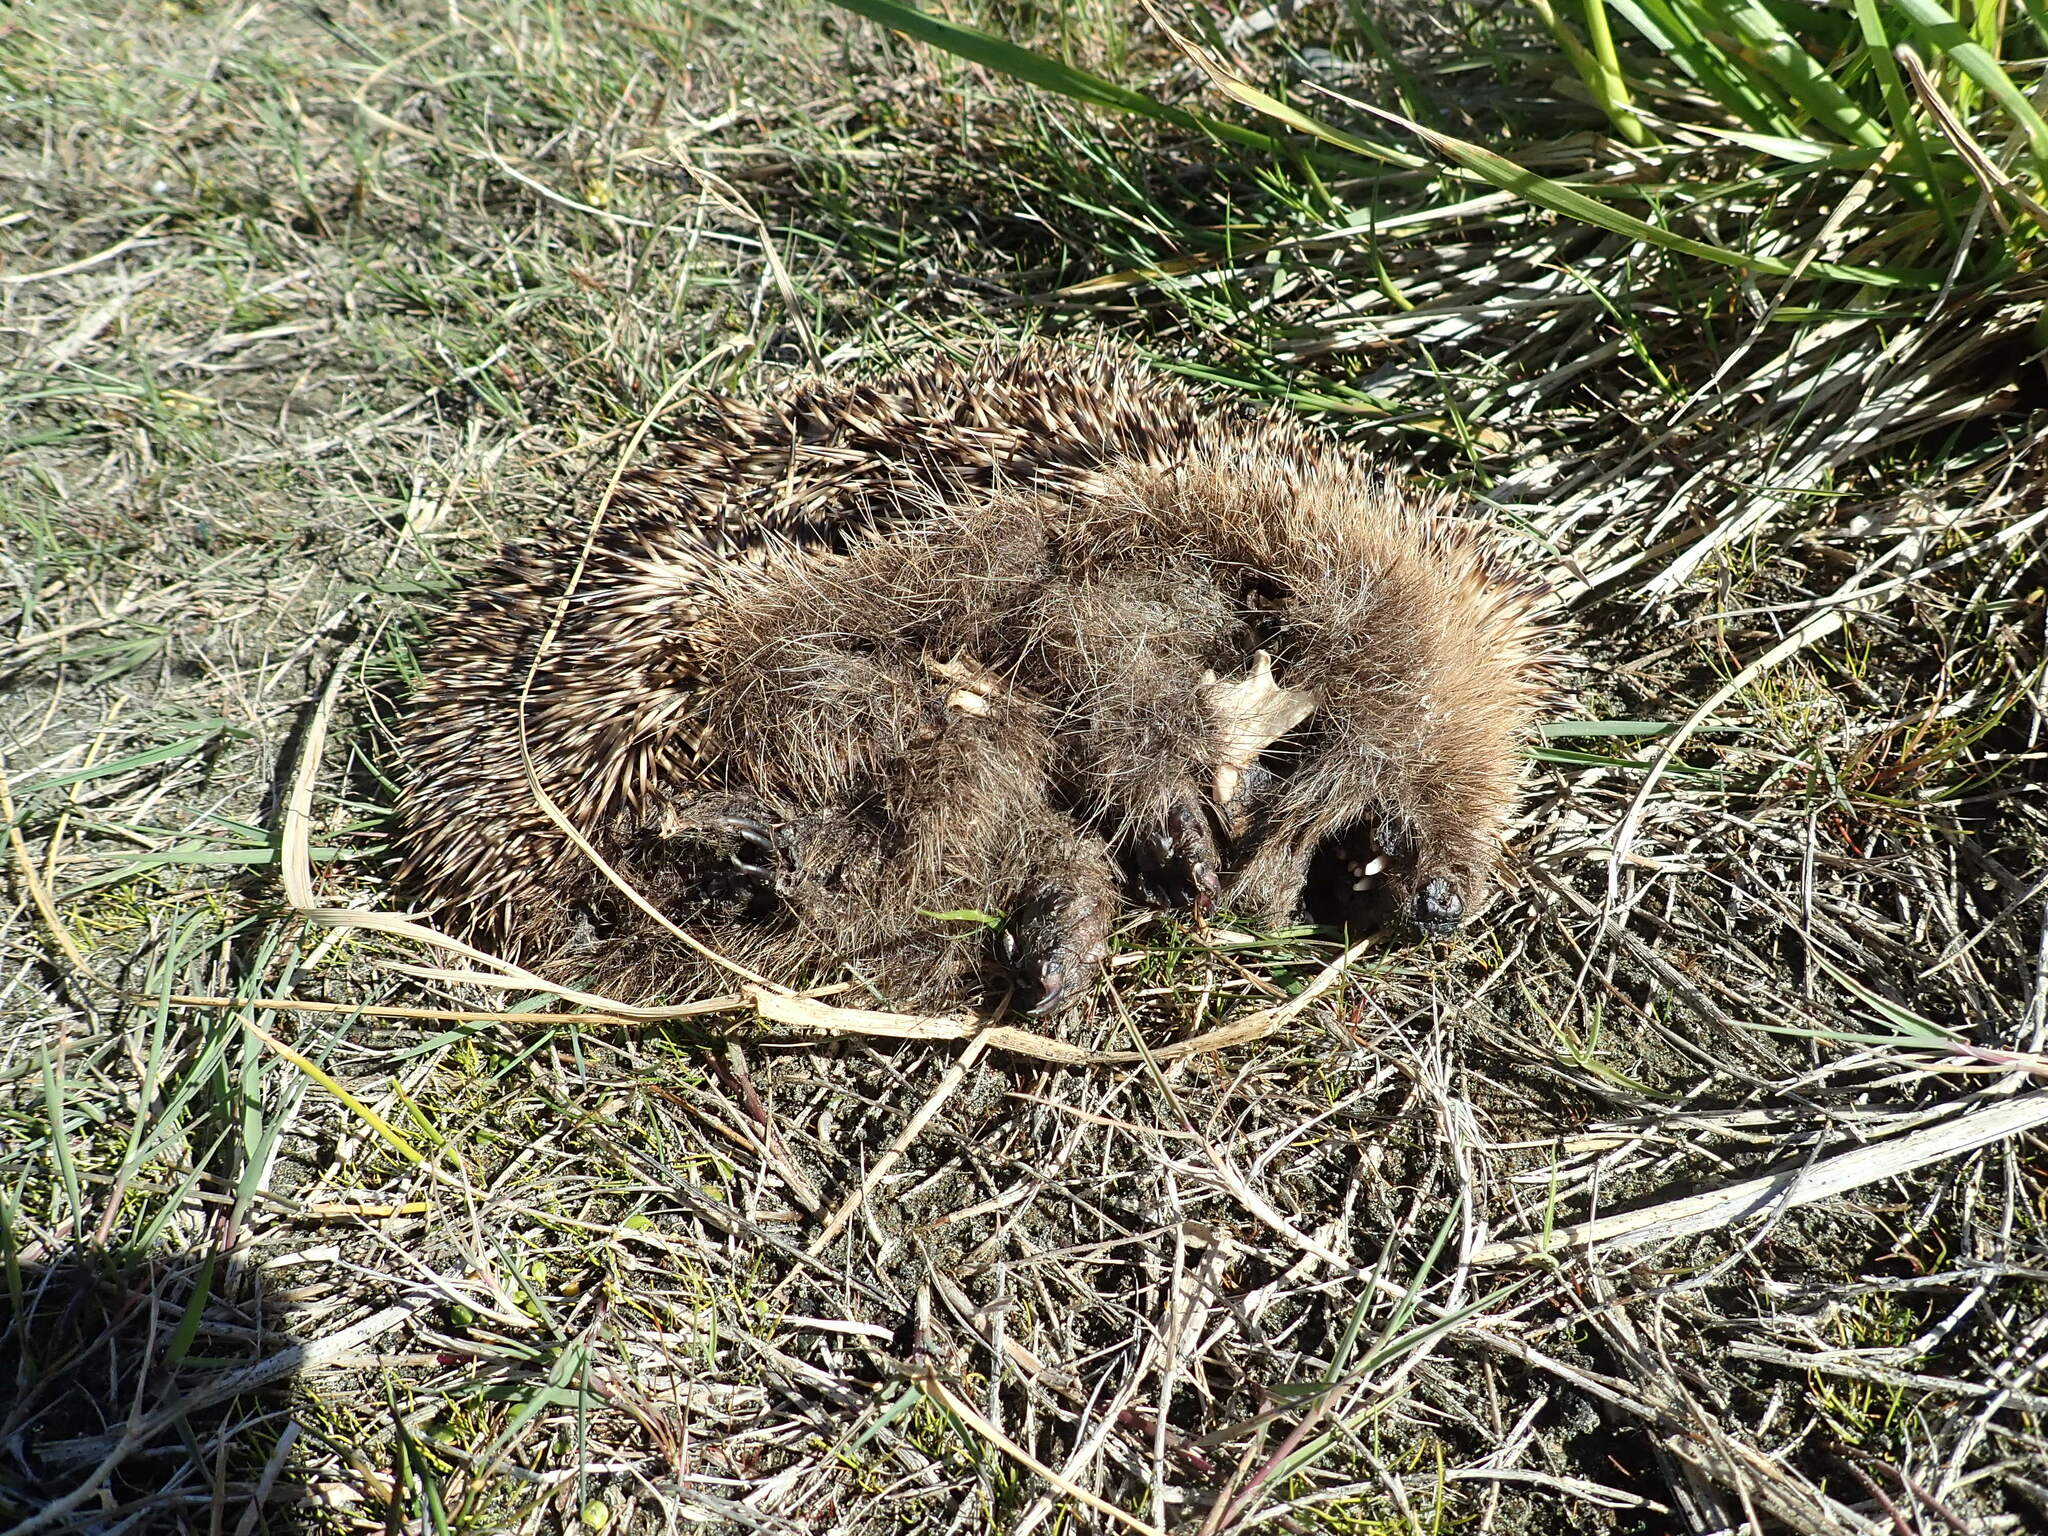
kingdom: Animalia
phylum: Chordata
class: Mammalia
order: Erinaceomorpha
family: Erinaceidae
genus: Erinaceus
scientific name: Erinaceus europaeus
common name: West european hedgehog
